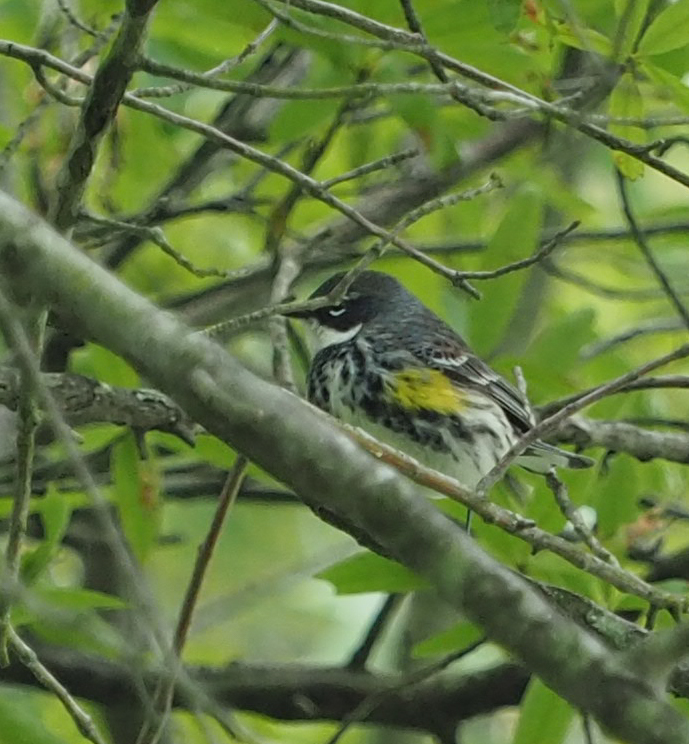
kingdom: Animalia
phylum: Chordata
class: Aves
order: Passeriformes
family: Parulidae
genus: Setophaga
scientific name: Setophaga coronata
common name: Myrtle warbler
